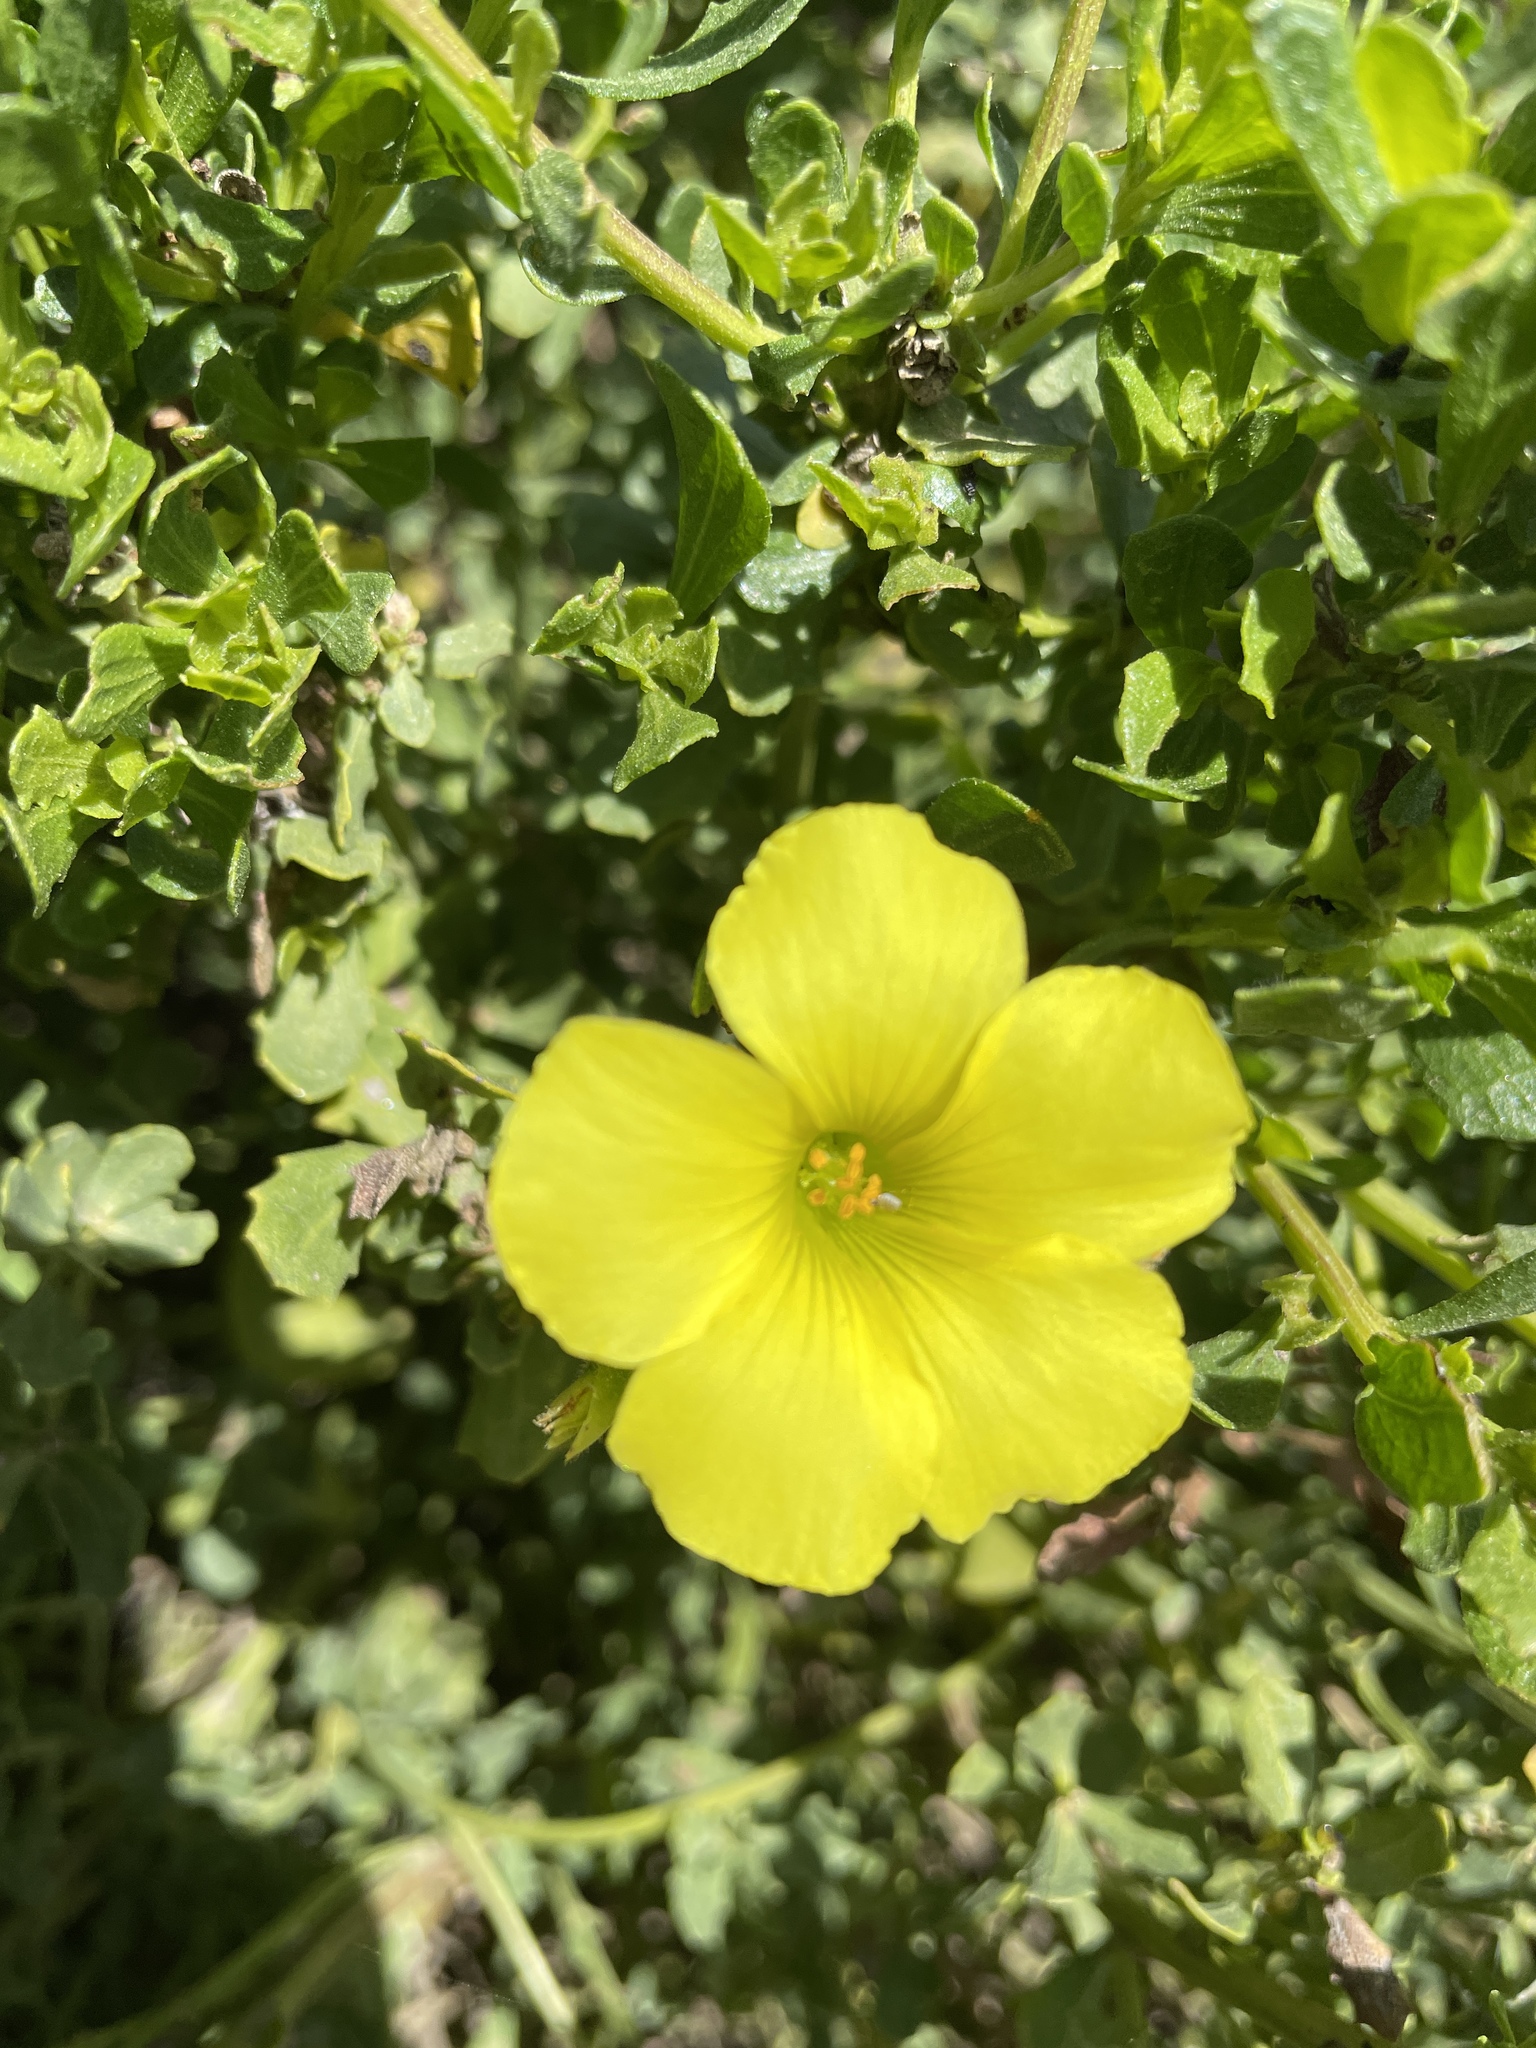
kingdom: Plantae
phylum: Tracheophyta
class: Magnoliopsida
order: Oxalidales
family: Oxalidaceae
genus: Oxalis
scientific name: Oxalis pes-caprae
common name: Bermuda-buttercup
